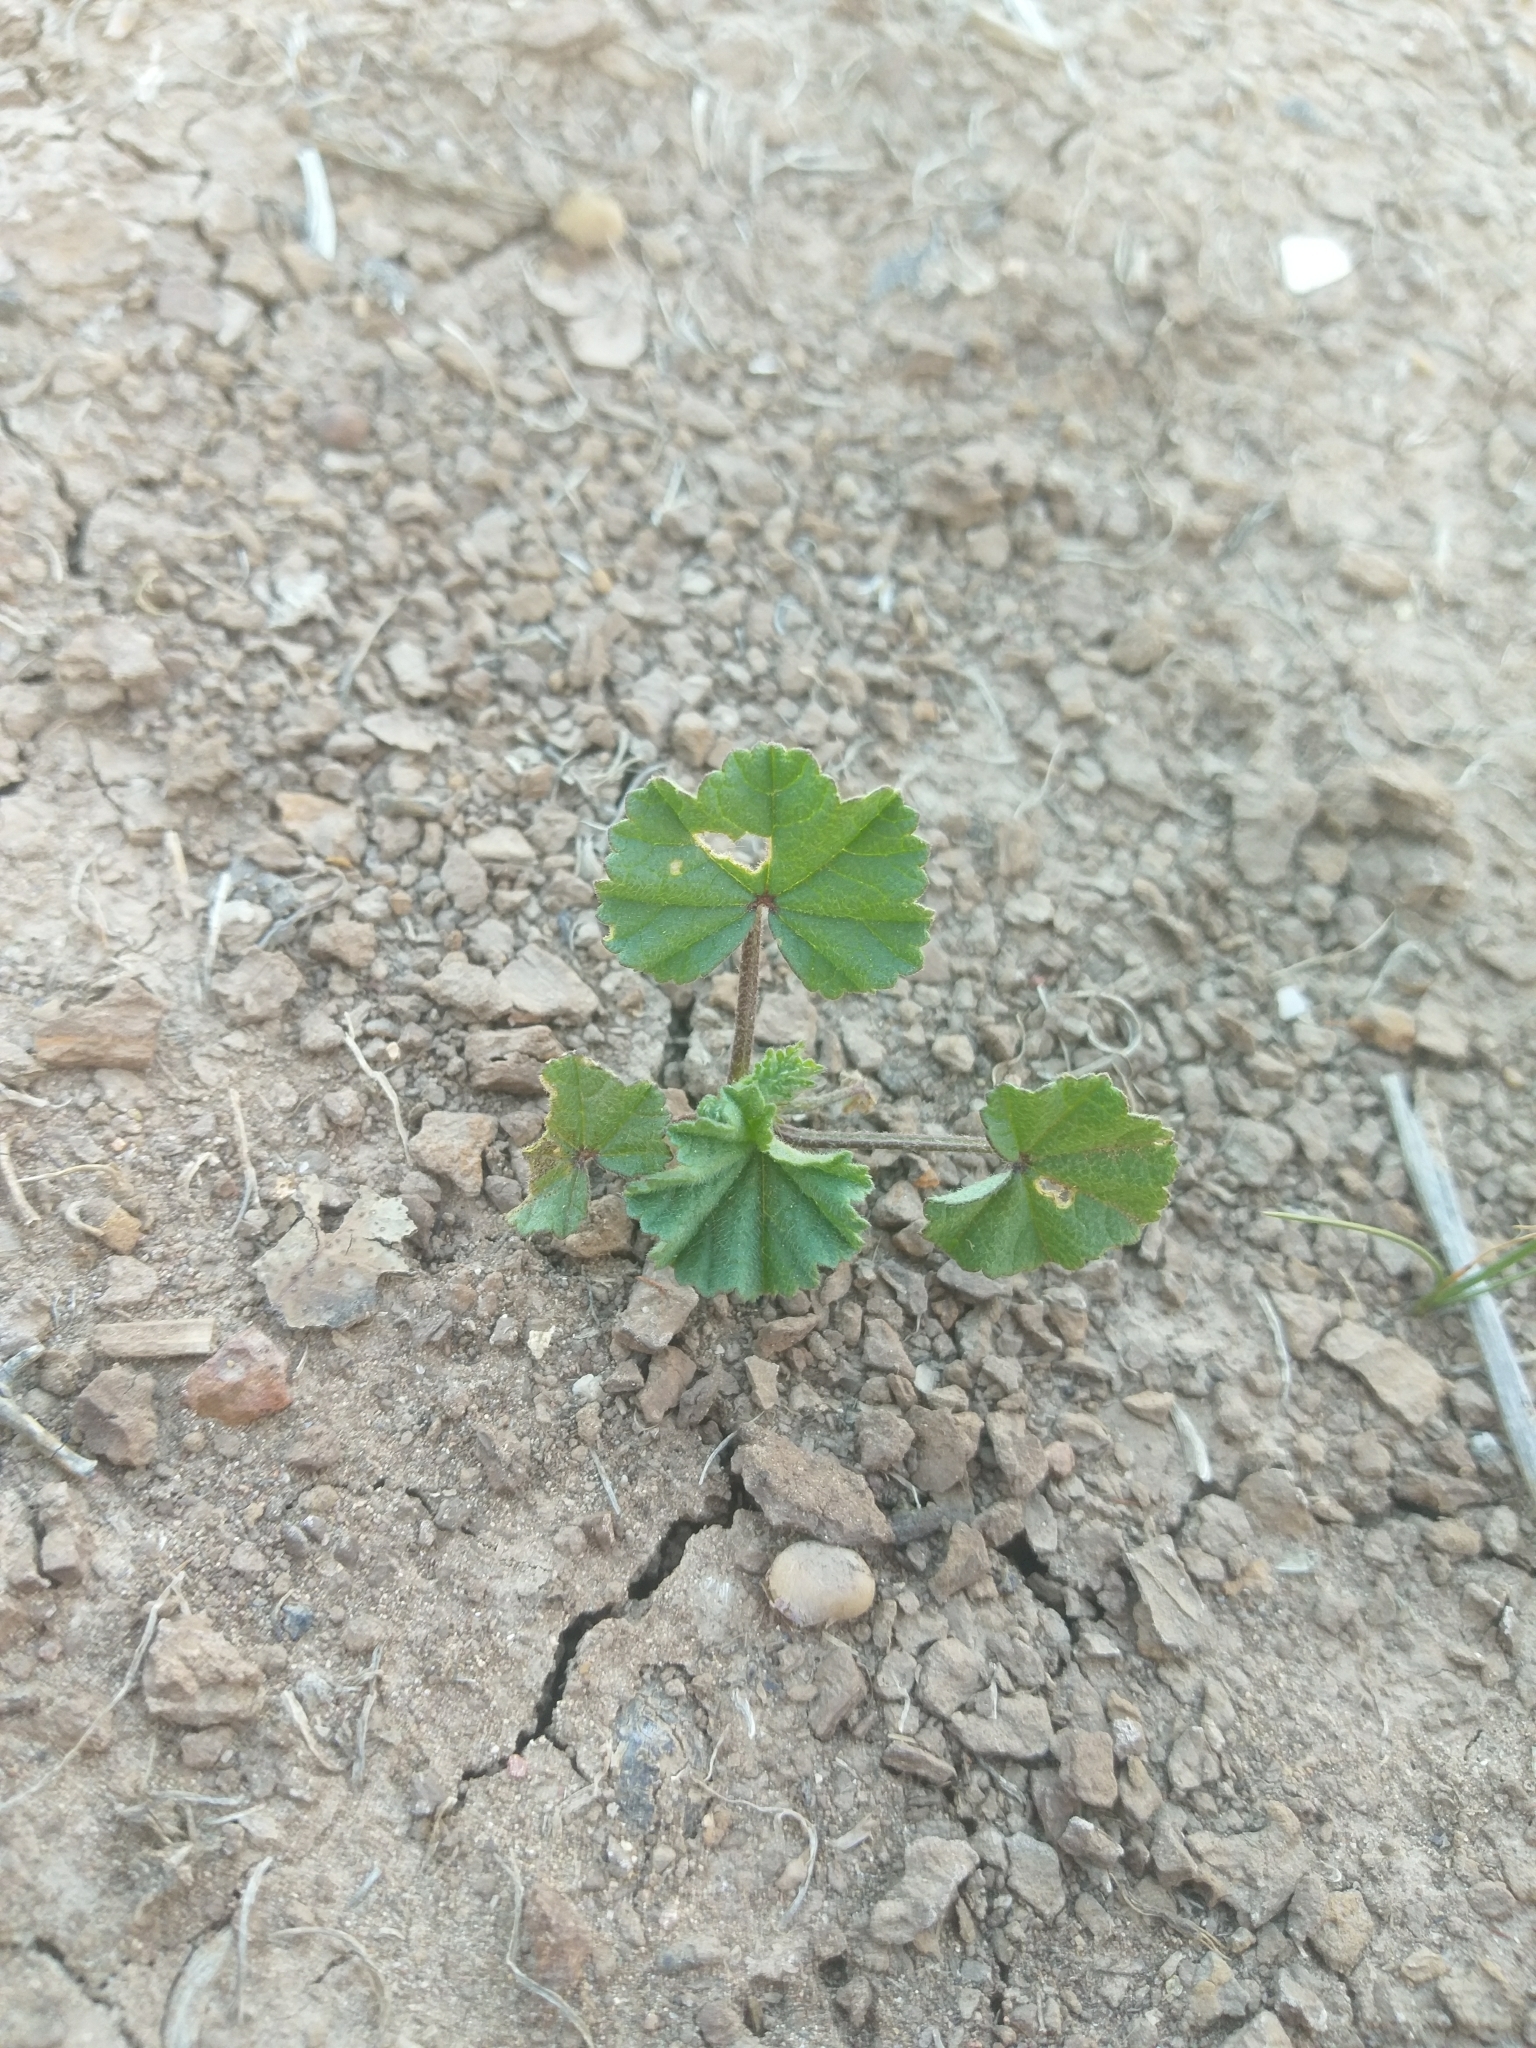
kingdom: Plantae
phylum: Tracheophyta
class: Magnoliopsida
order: Malvales
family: Malvaceae
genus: Malva
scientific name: Malva
